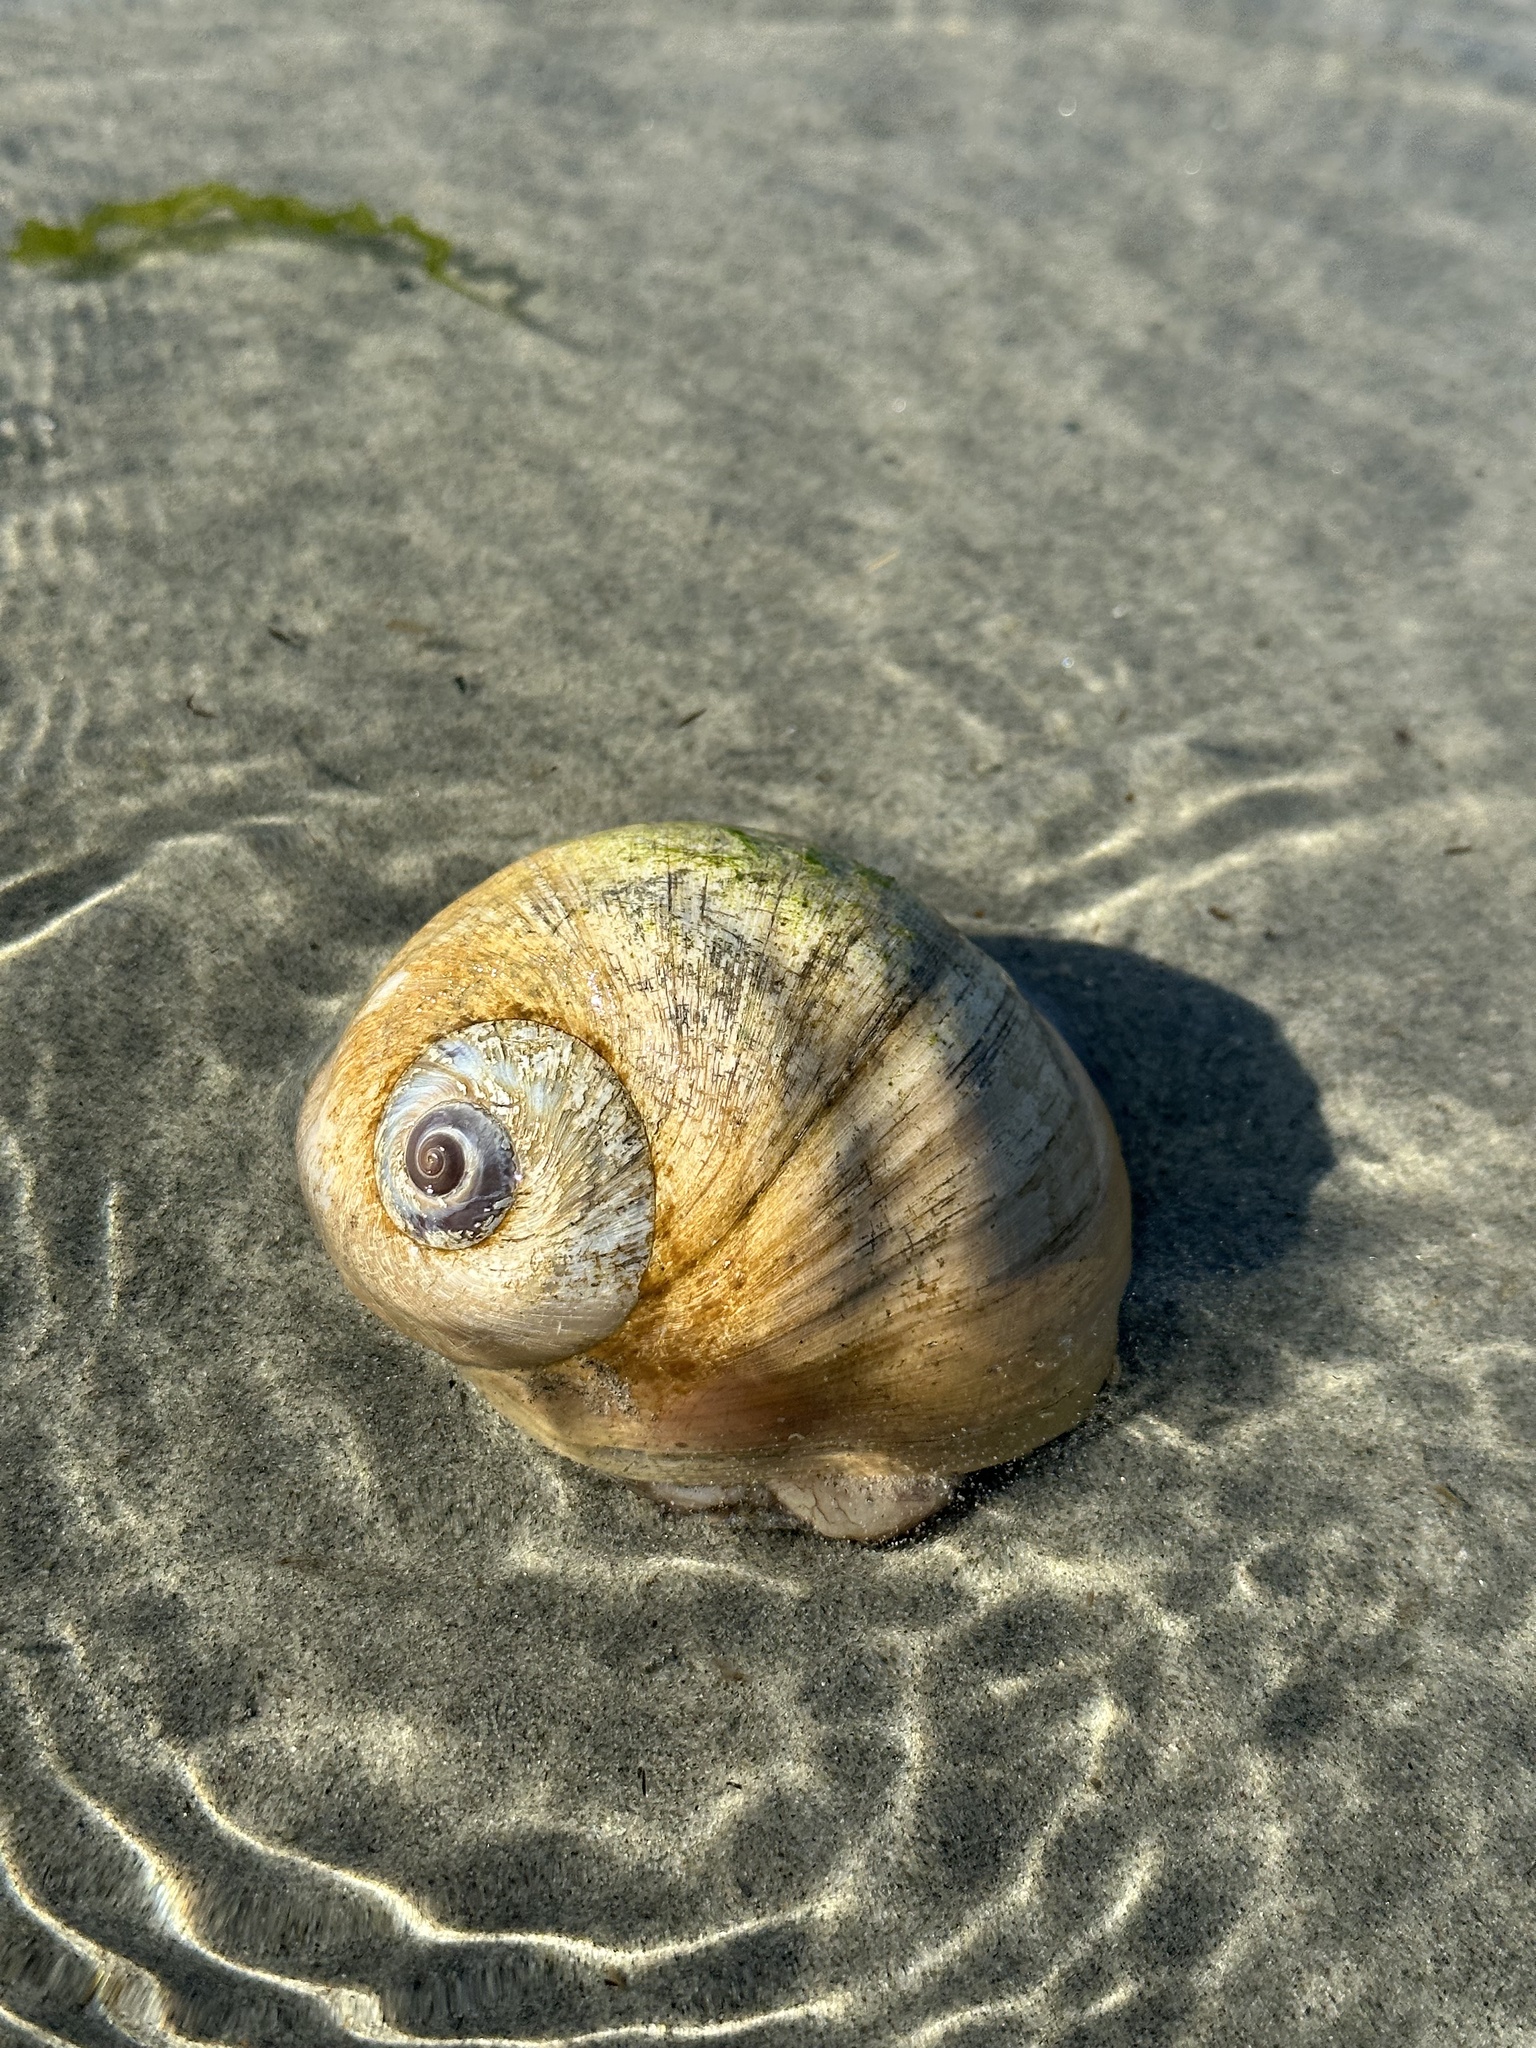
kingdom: Animalia
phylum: Mollusca
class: Gastropoda
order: Littorinimorpha
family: Naticidae
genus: Neverita
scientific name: Neverita lewisii
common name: Lewis' moonsnail
